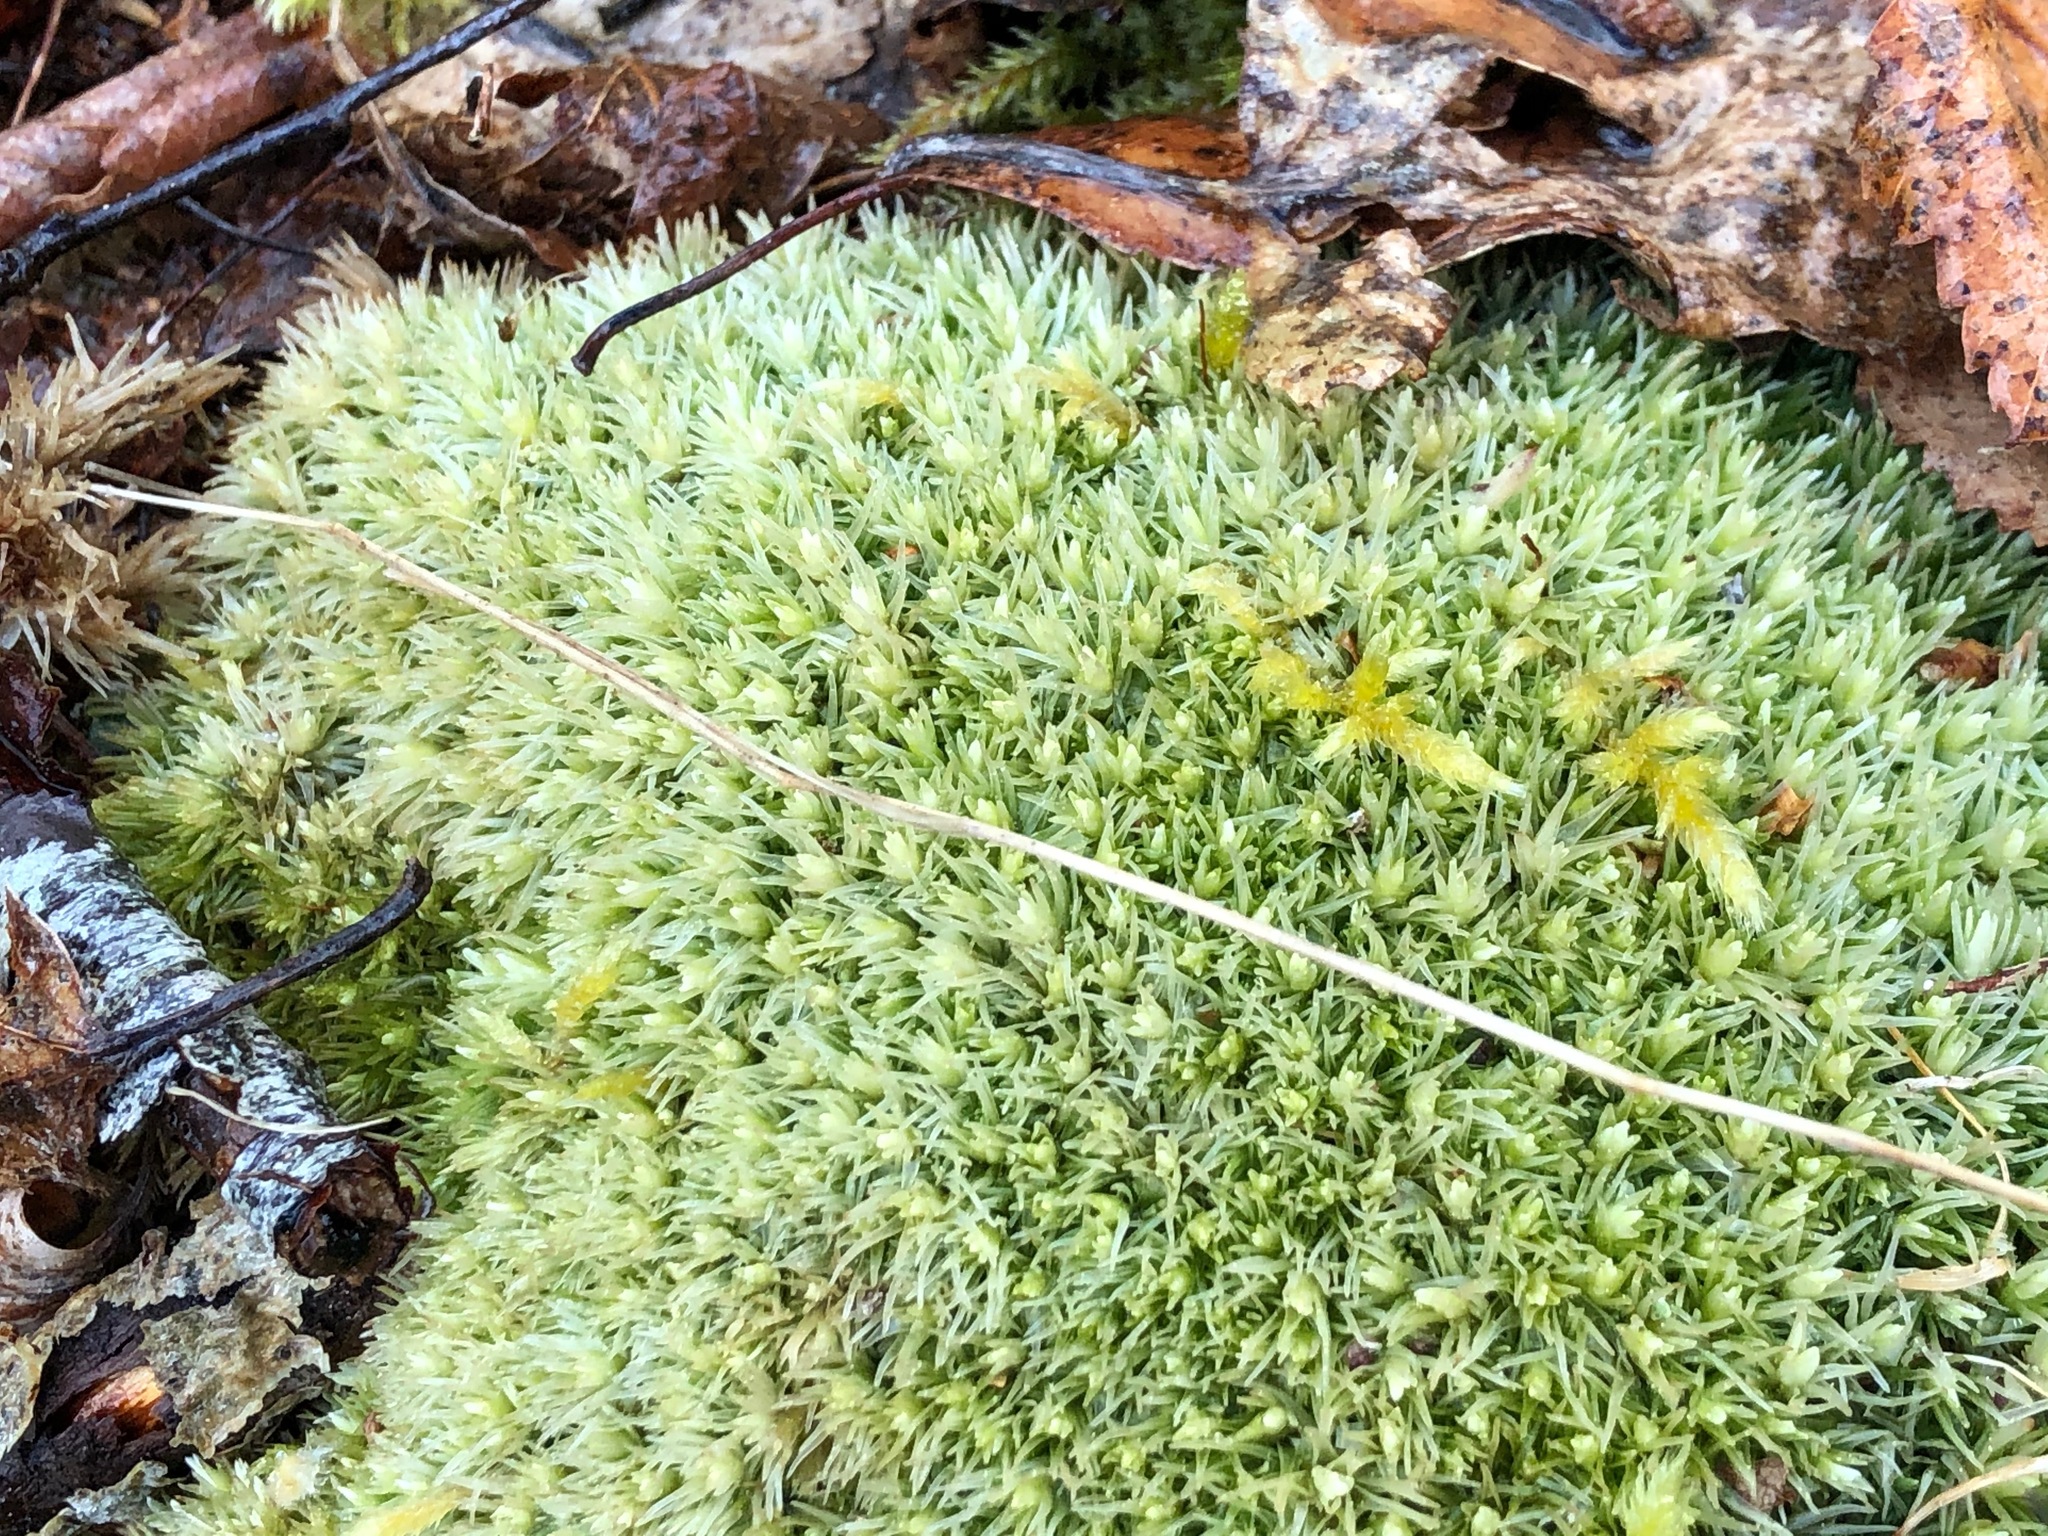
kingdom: Plantae
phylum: Bryophyta
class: Bryopsida
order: Dicranales
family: Leucobryaceae
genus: Leucobryum
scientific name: Leucobryum glaucum
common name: Large white-moss
